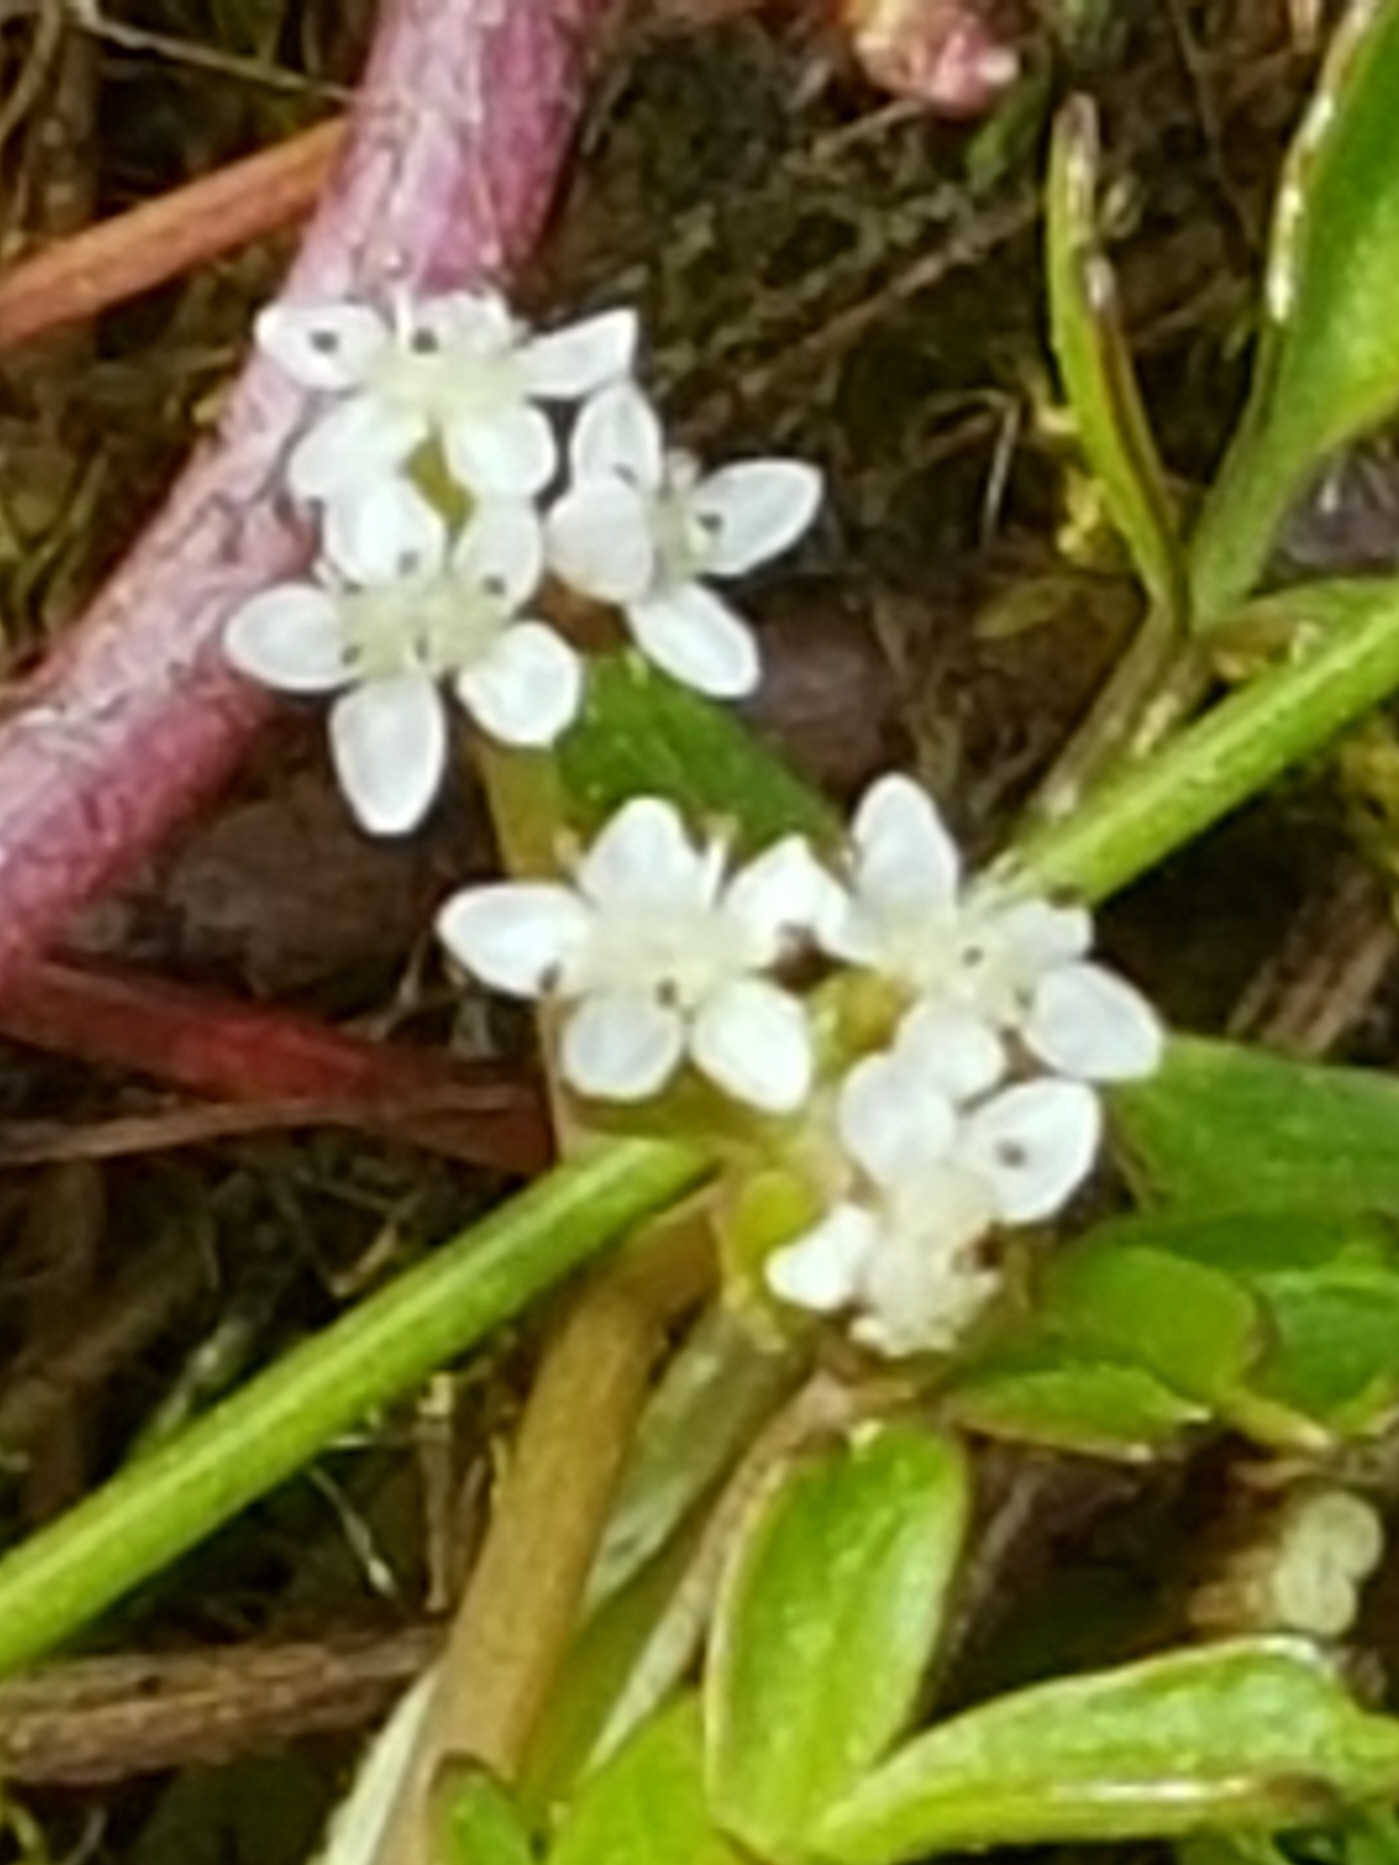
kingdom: Plantae
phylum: Tracheophyta
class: Magnoliopsida
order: Apiales
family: Apiaceae
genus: Helosciadium
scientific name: Helosciadium inundatum
